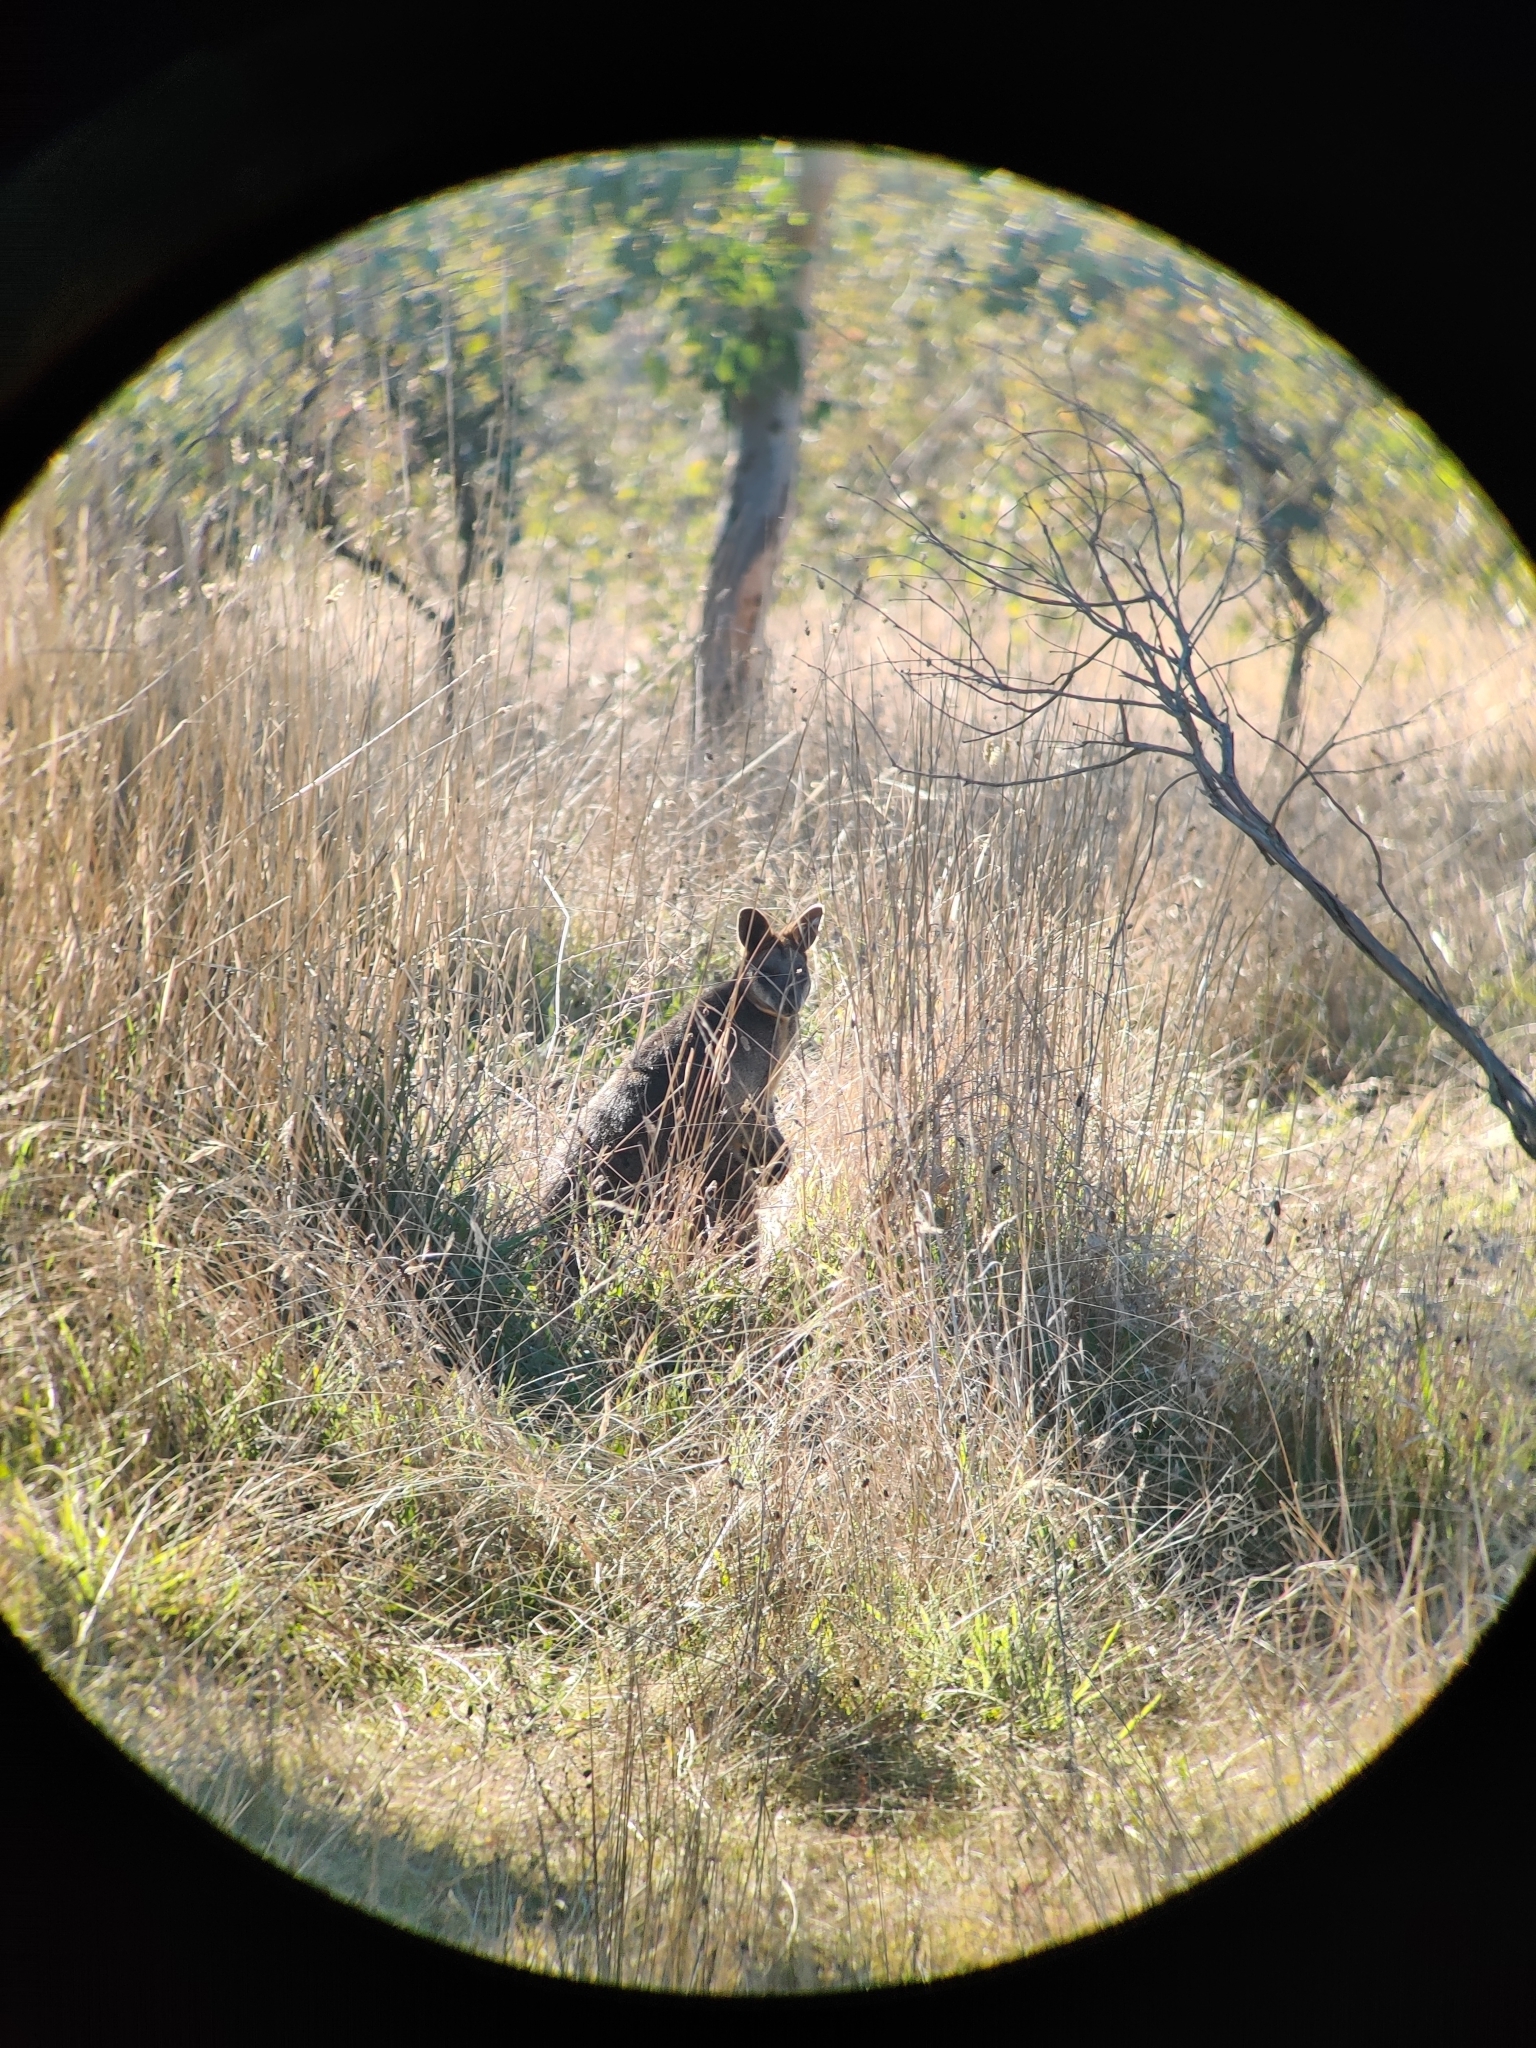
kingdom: Animalia
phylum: Chordata
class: Mammalia
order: Diprotodontia
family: Macropodidae
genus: Wallabia
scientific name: Wallabia bicolor
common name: Swamp wallaby
